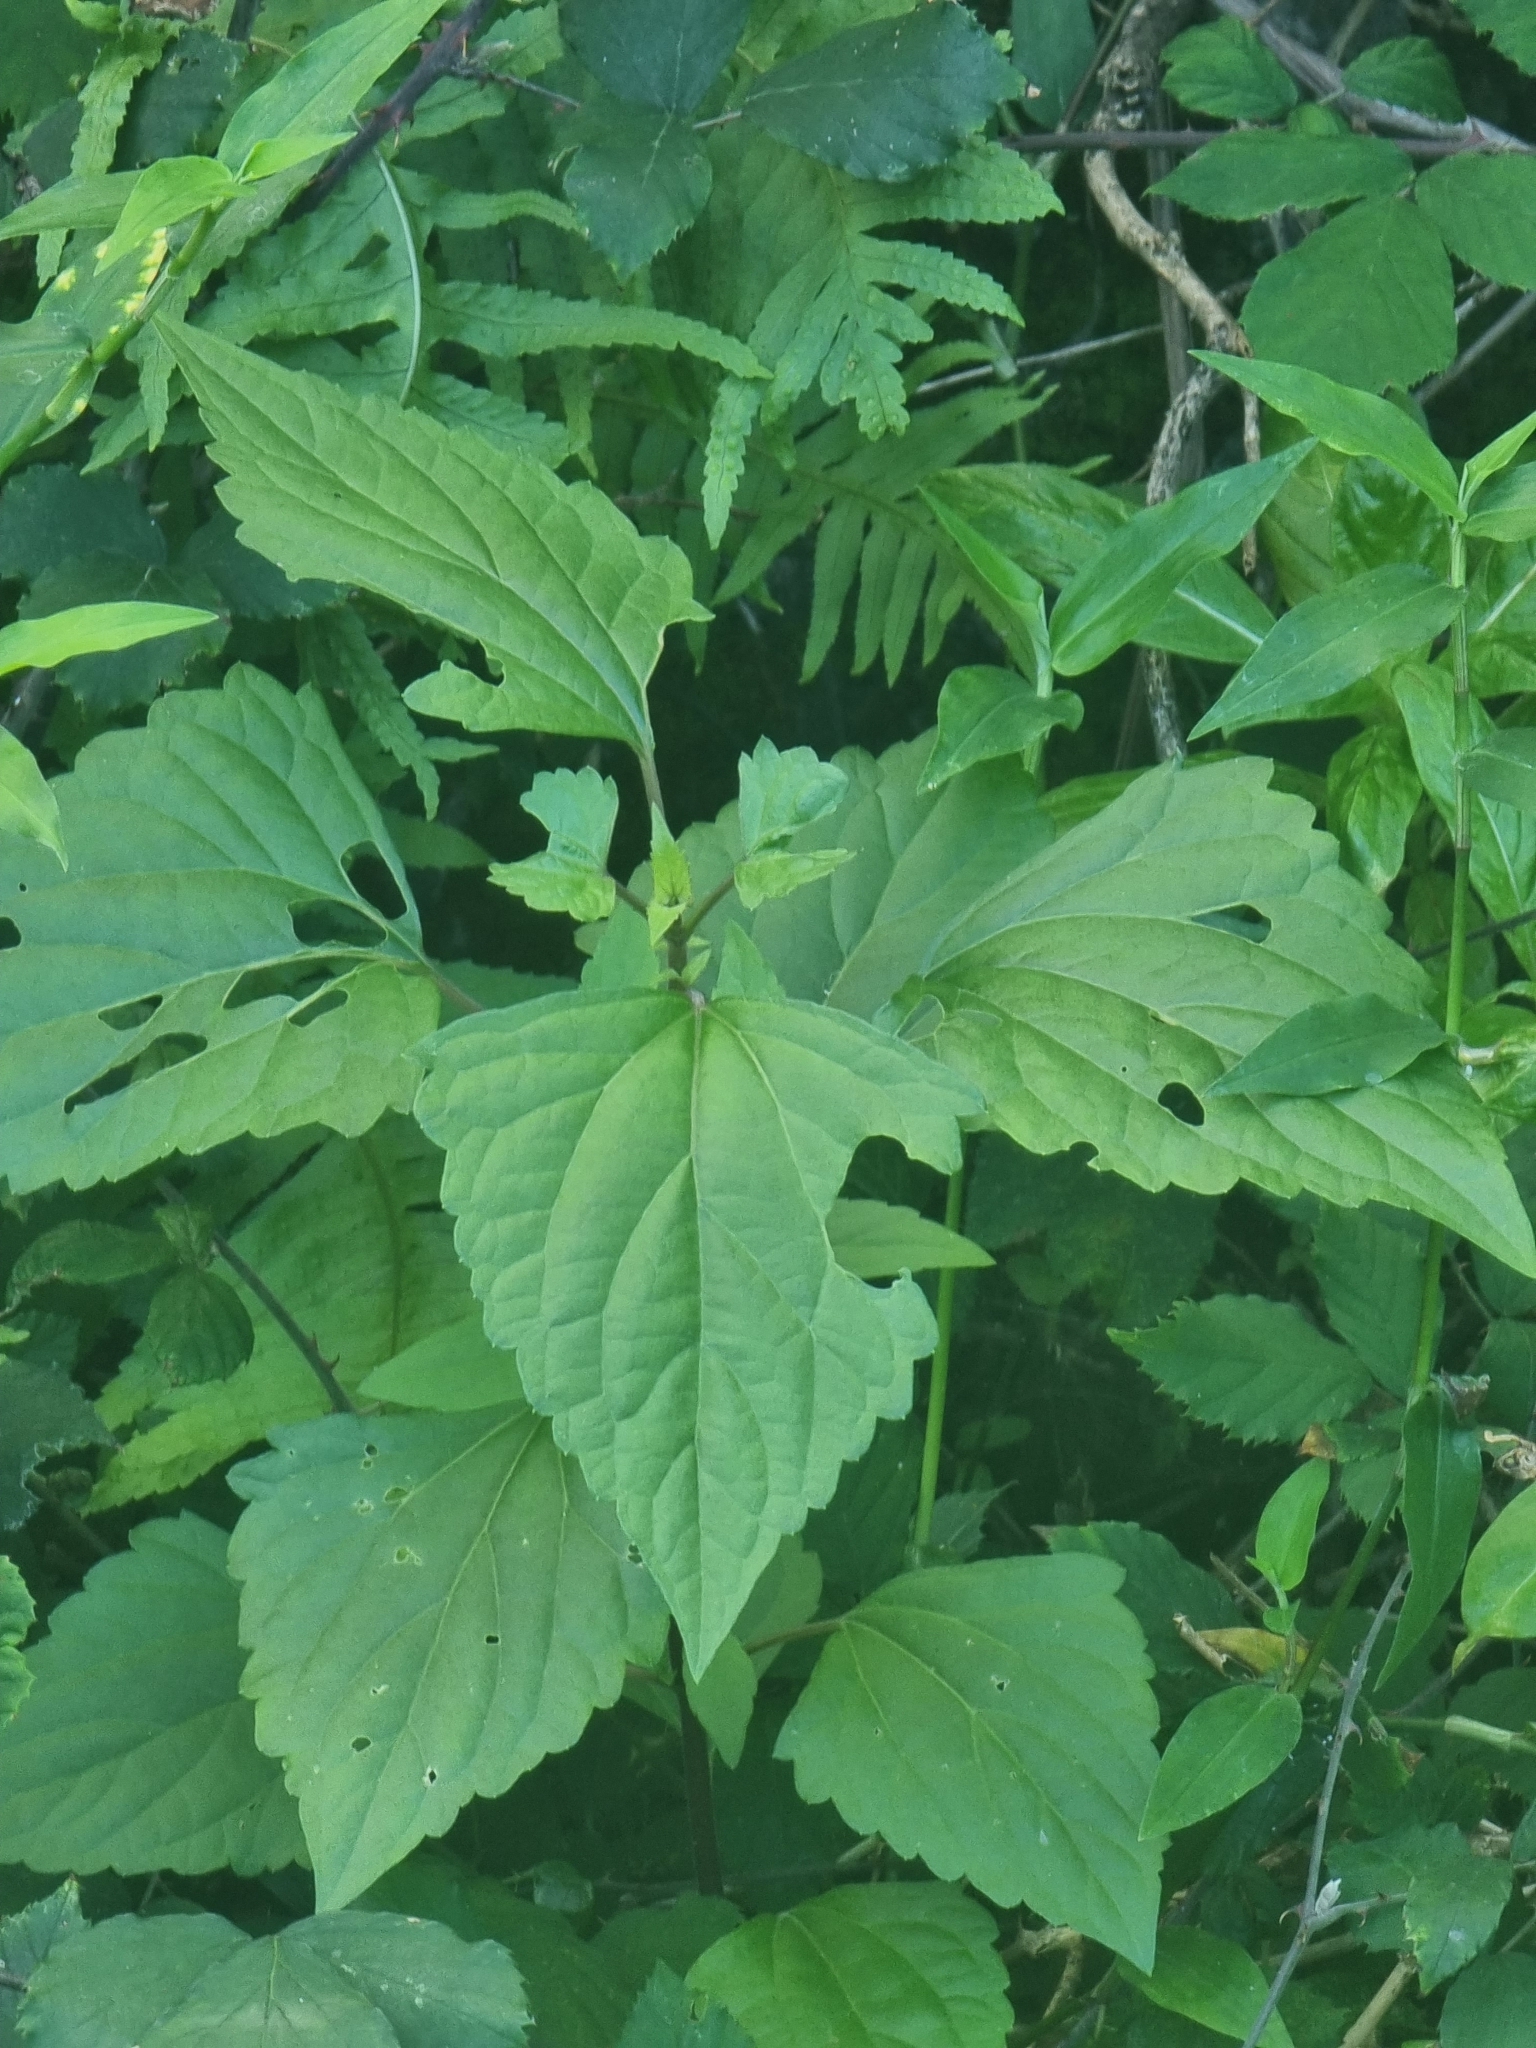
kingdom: Plantae
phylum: Tracheophyta
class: Magnoliopsida
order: Asterales
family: Asteraceae
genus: Ageratina
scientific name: Ageratina adenophora
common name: Sticky snakeroot
